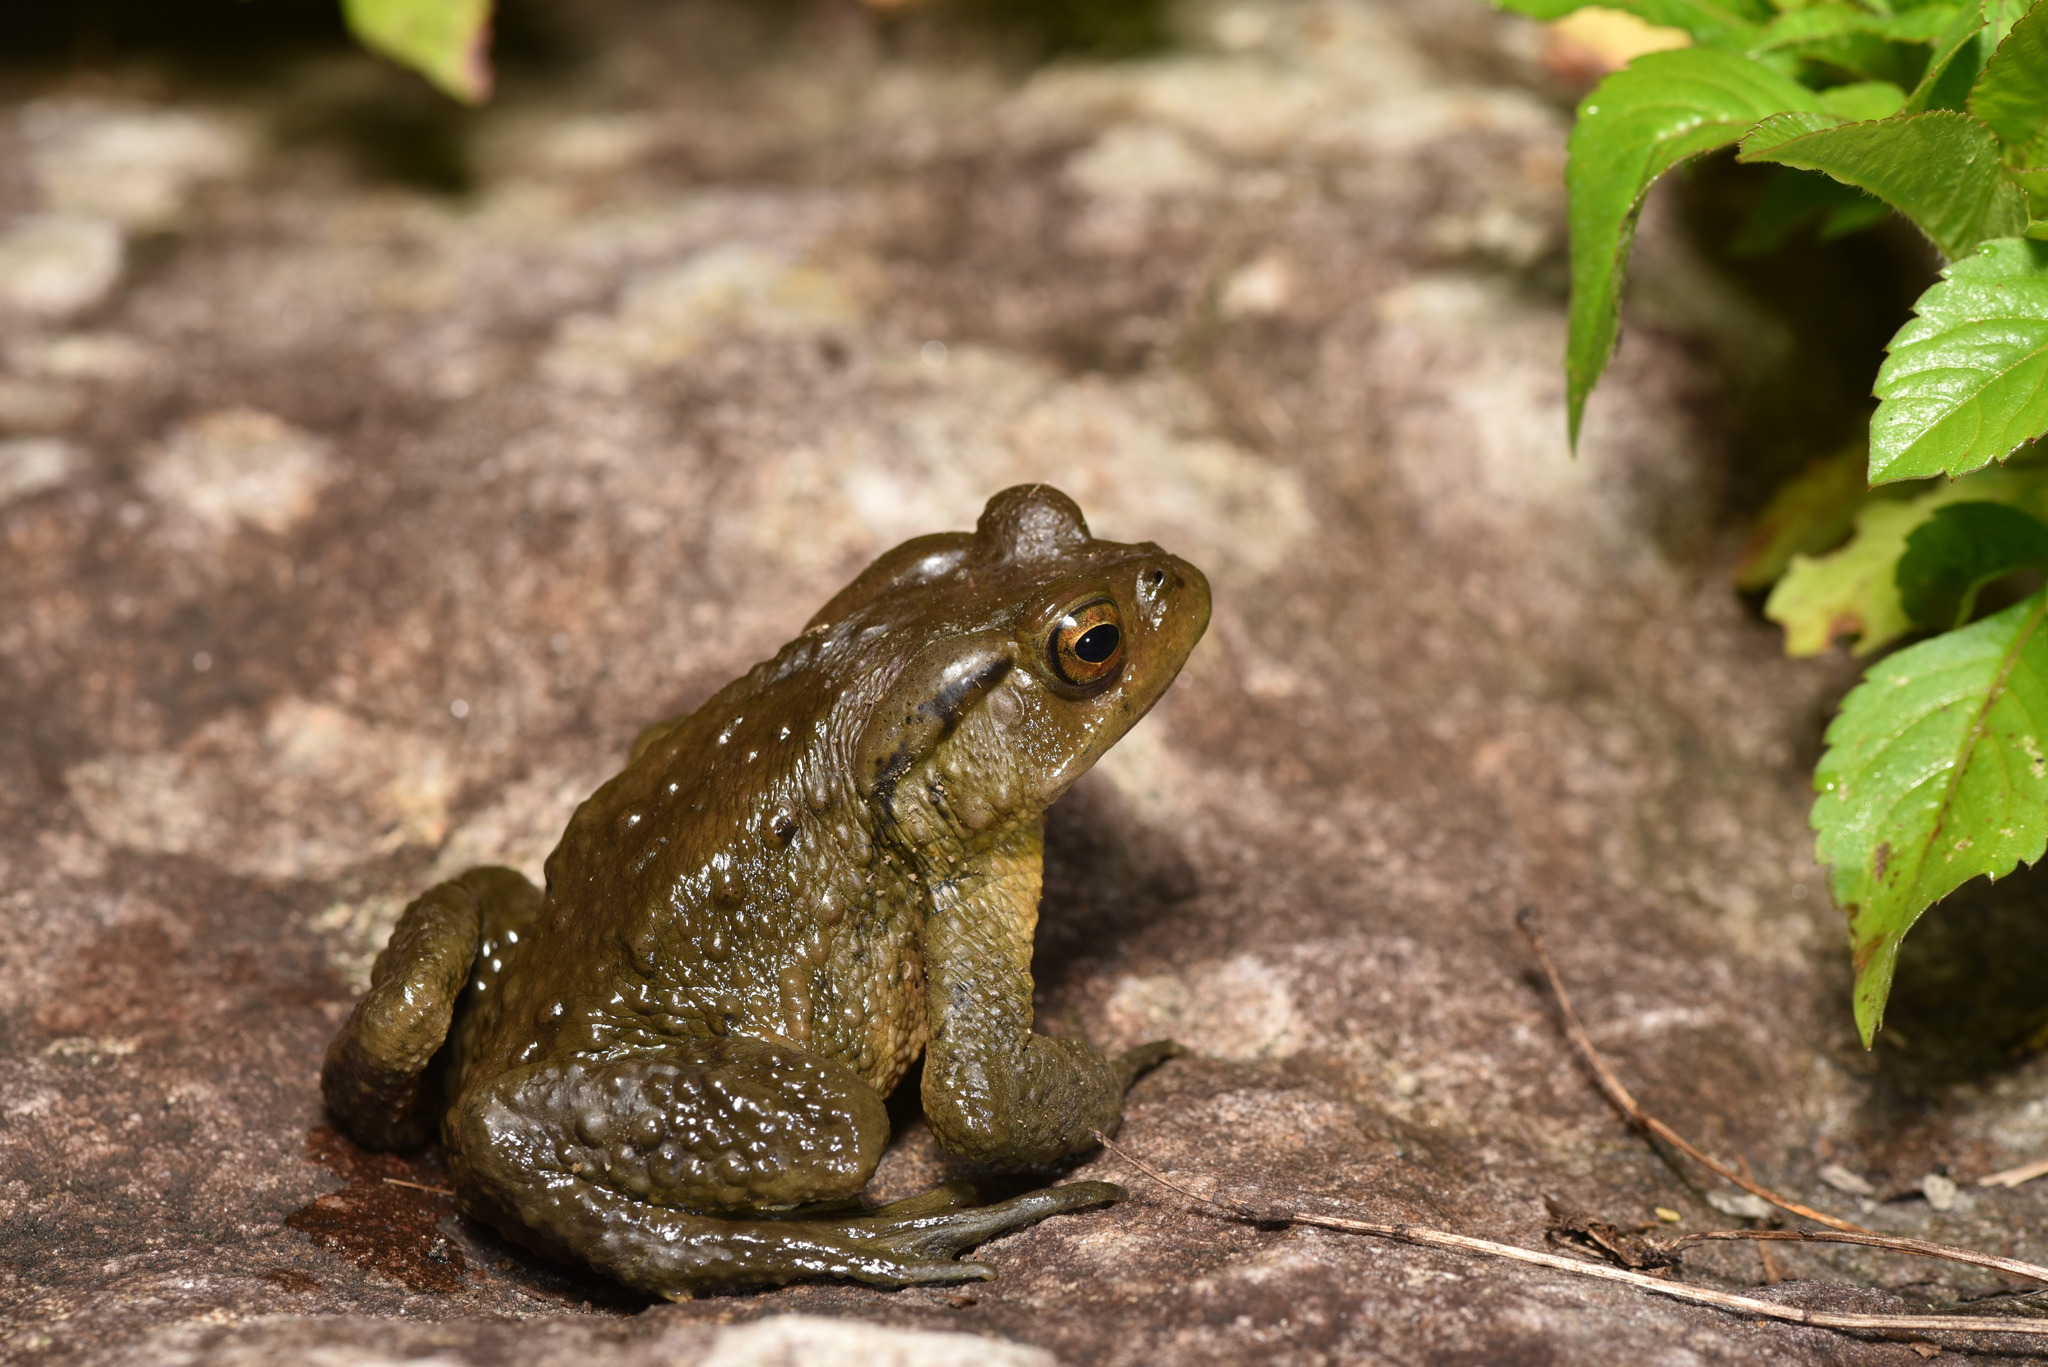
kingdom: Animalia
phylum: Chordata
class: Amphibia
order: Anura
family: Bufonidae
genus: Bufo
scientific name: Bufo bankorensis
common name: Bankor toad
